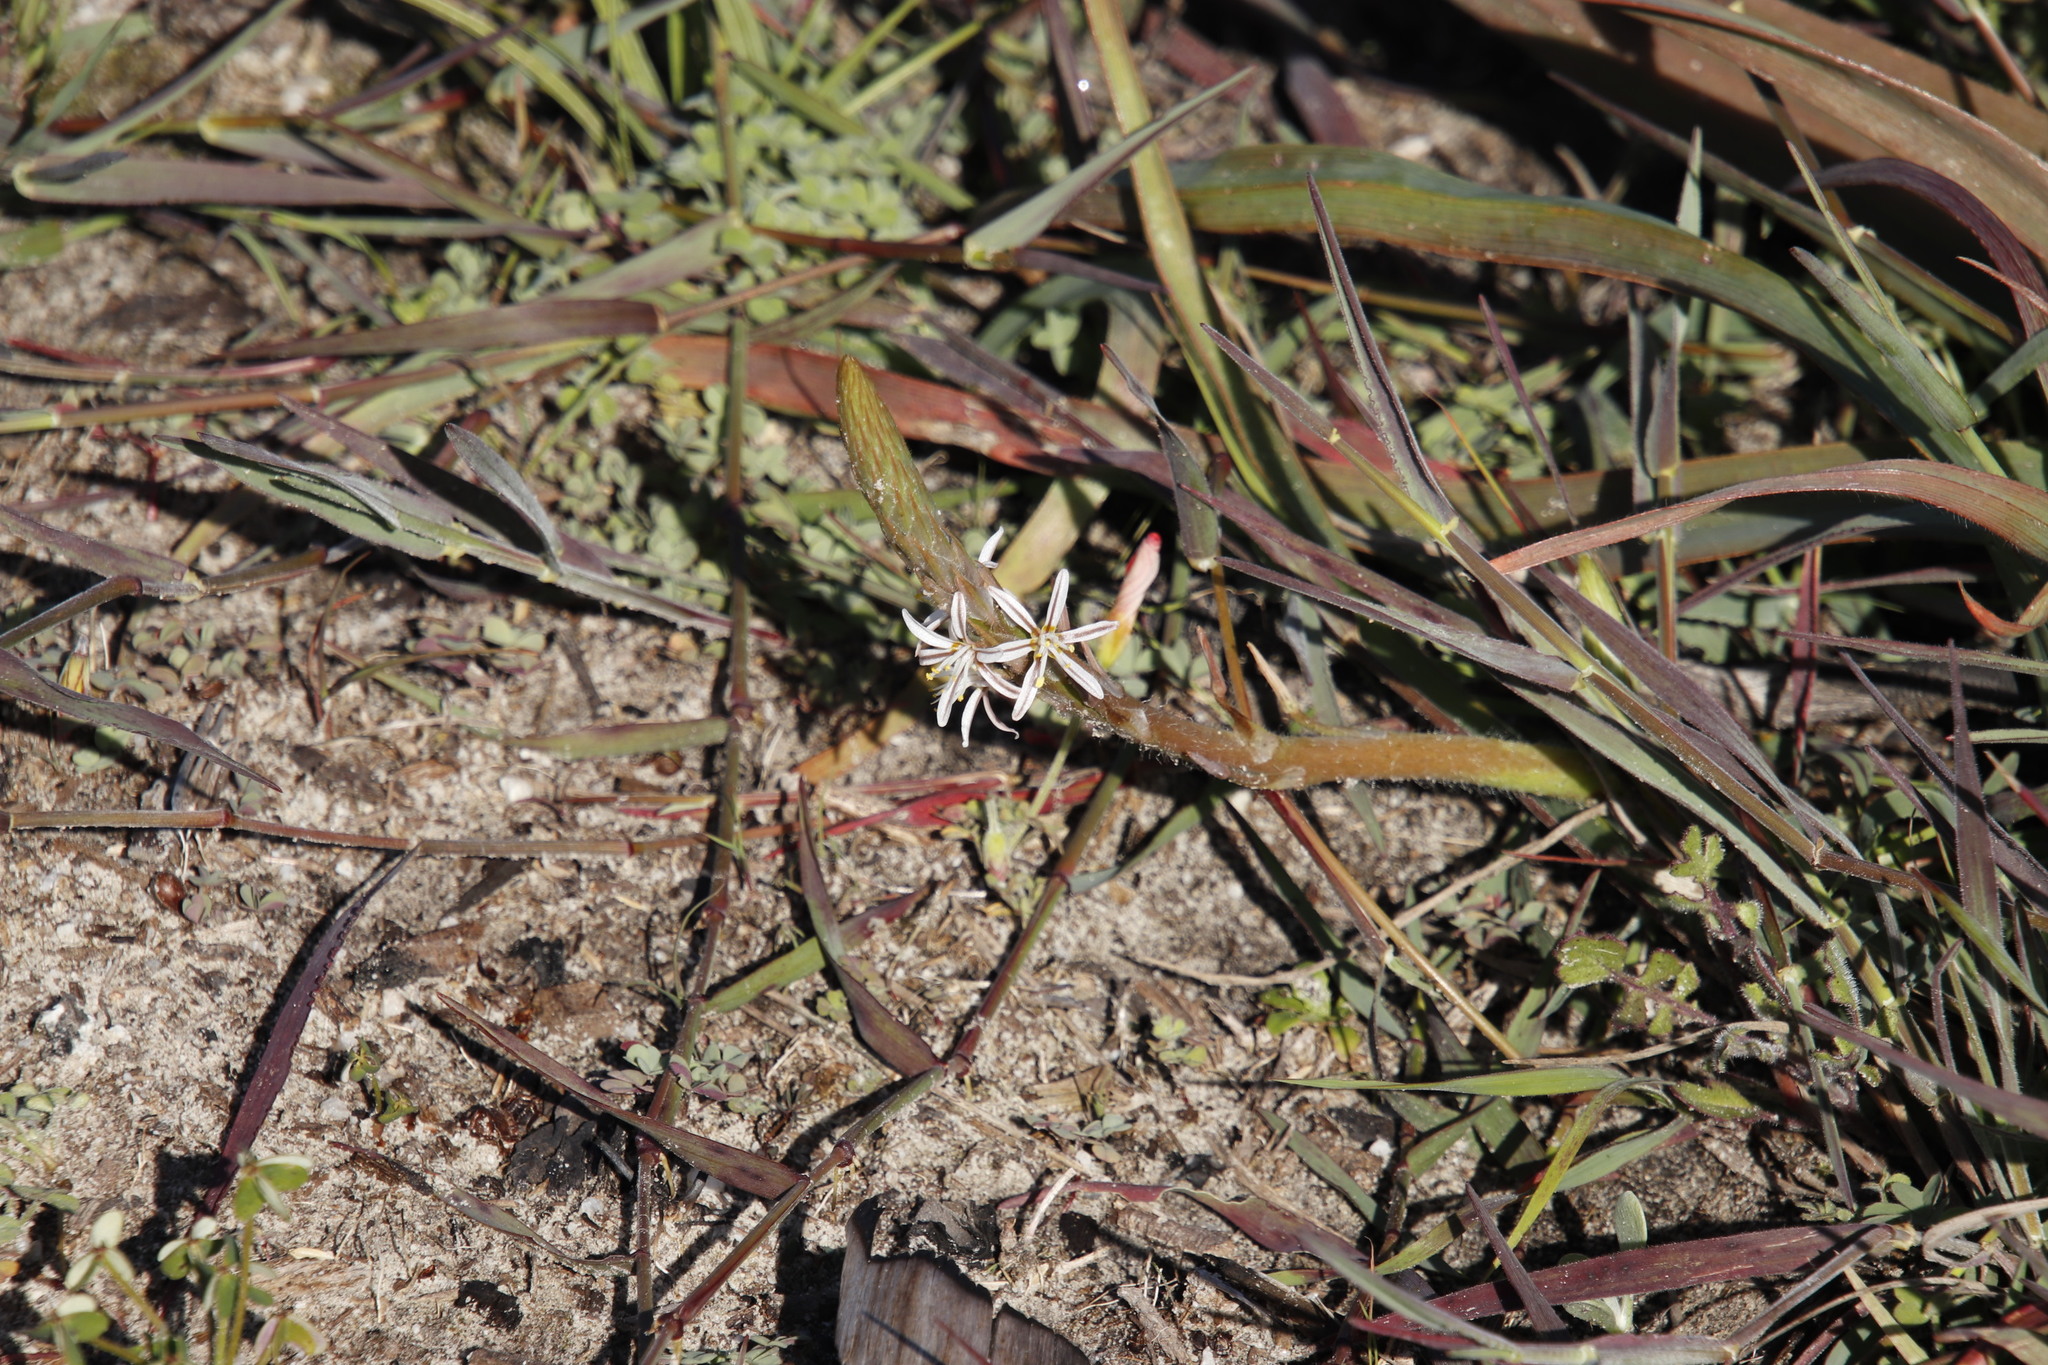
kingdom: Plantae
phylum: Tracheophyta
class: Liliopsida
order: Asparagales
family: Asphodelaceae
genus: Trachyandra
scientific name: Trachyandra ciliata
